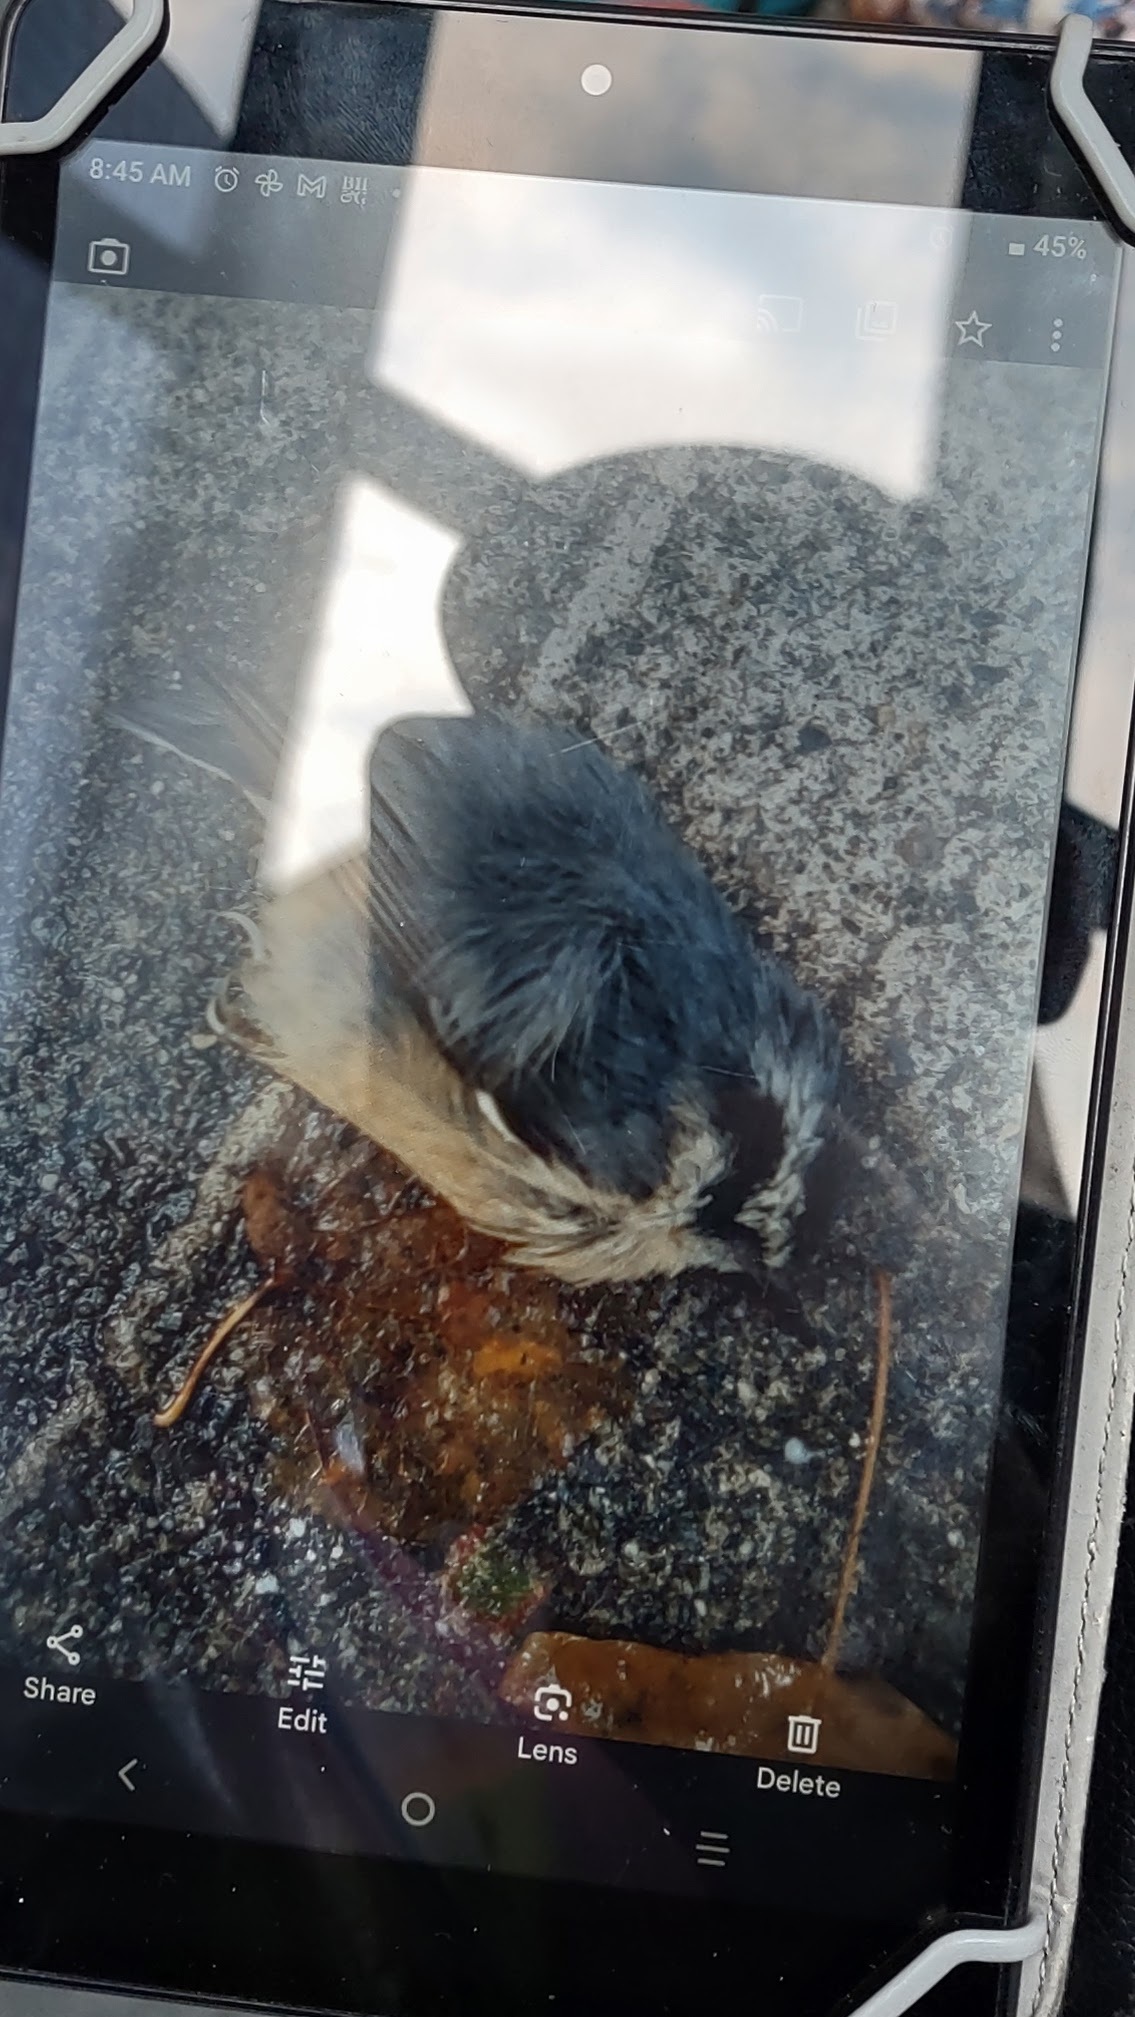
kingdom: Animalia
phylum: Chordata
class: Aves
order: Passeriformes
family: Sittidae
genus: Sitta
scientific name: Sitta canadensis
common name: Red-breasted nuthatch
